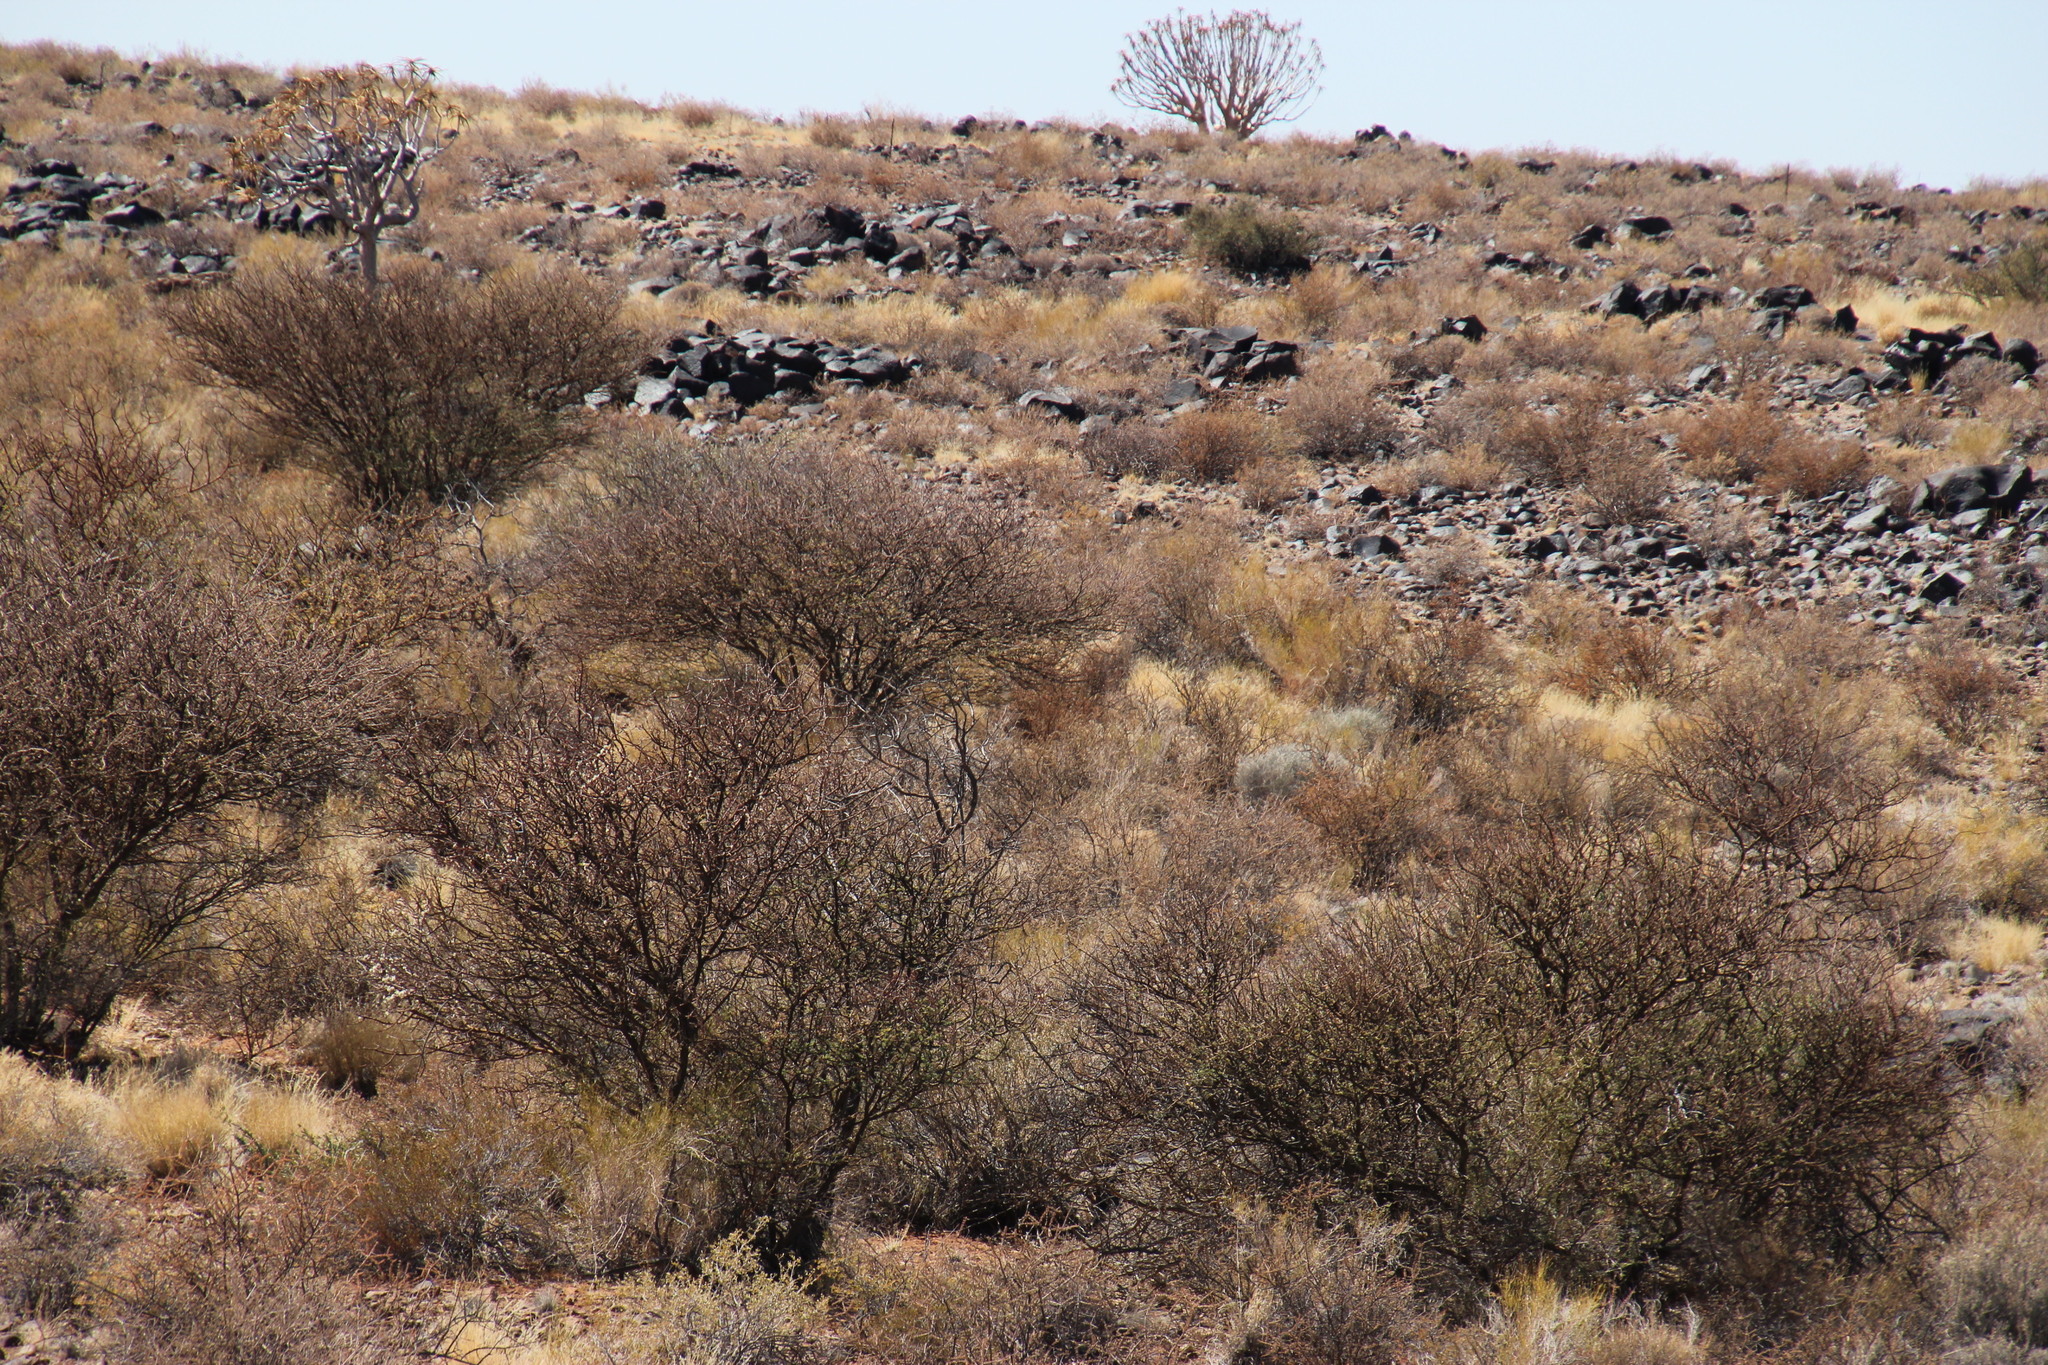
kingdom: Plantae
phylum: Tracheophyta
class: Magnoliopsida
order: Fabales
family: Fabaceae
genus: Senegalia
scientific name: Senegalia mellifera
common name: Hookthorn
